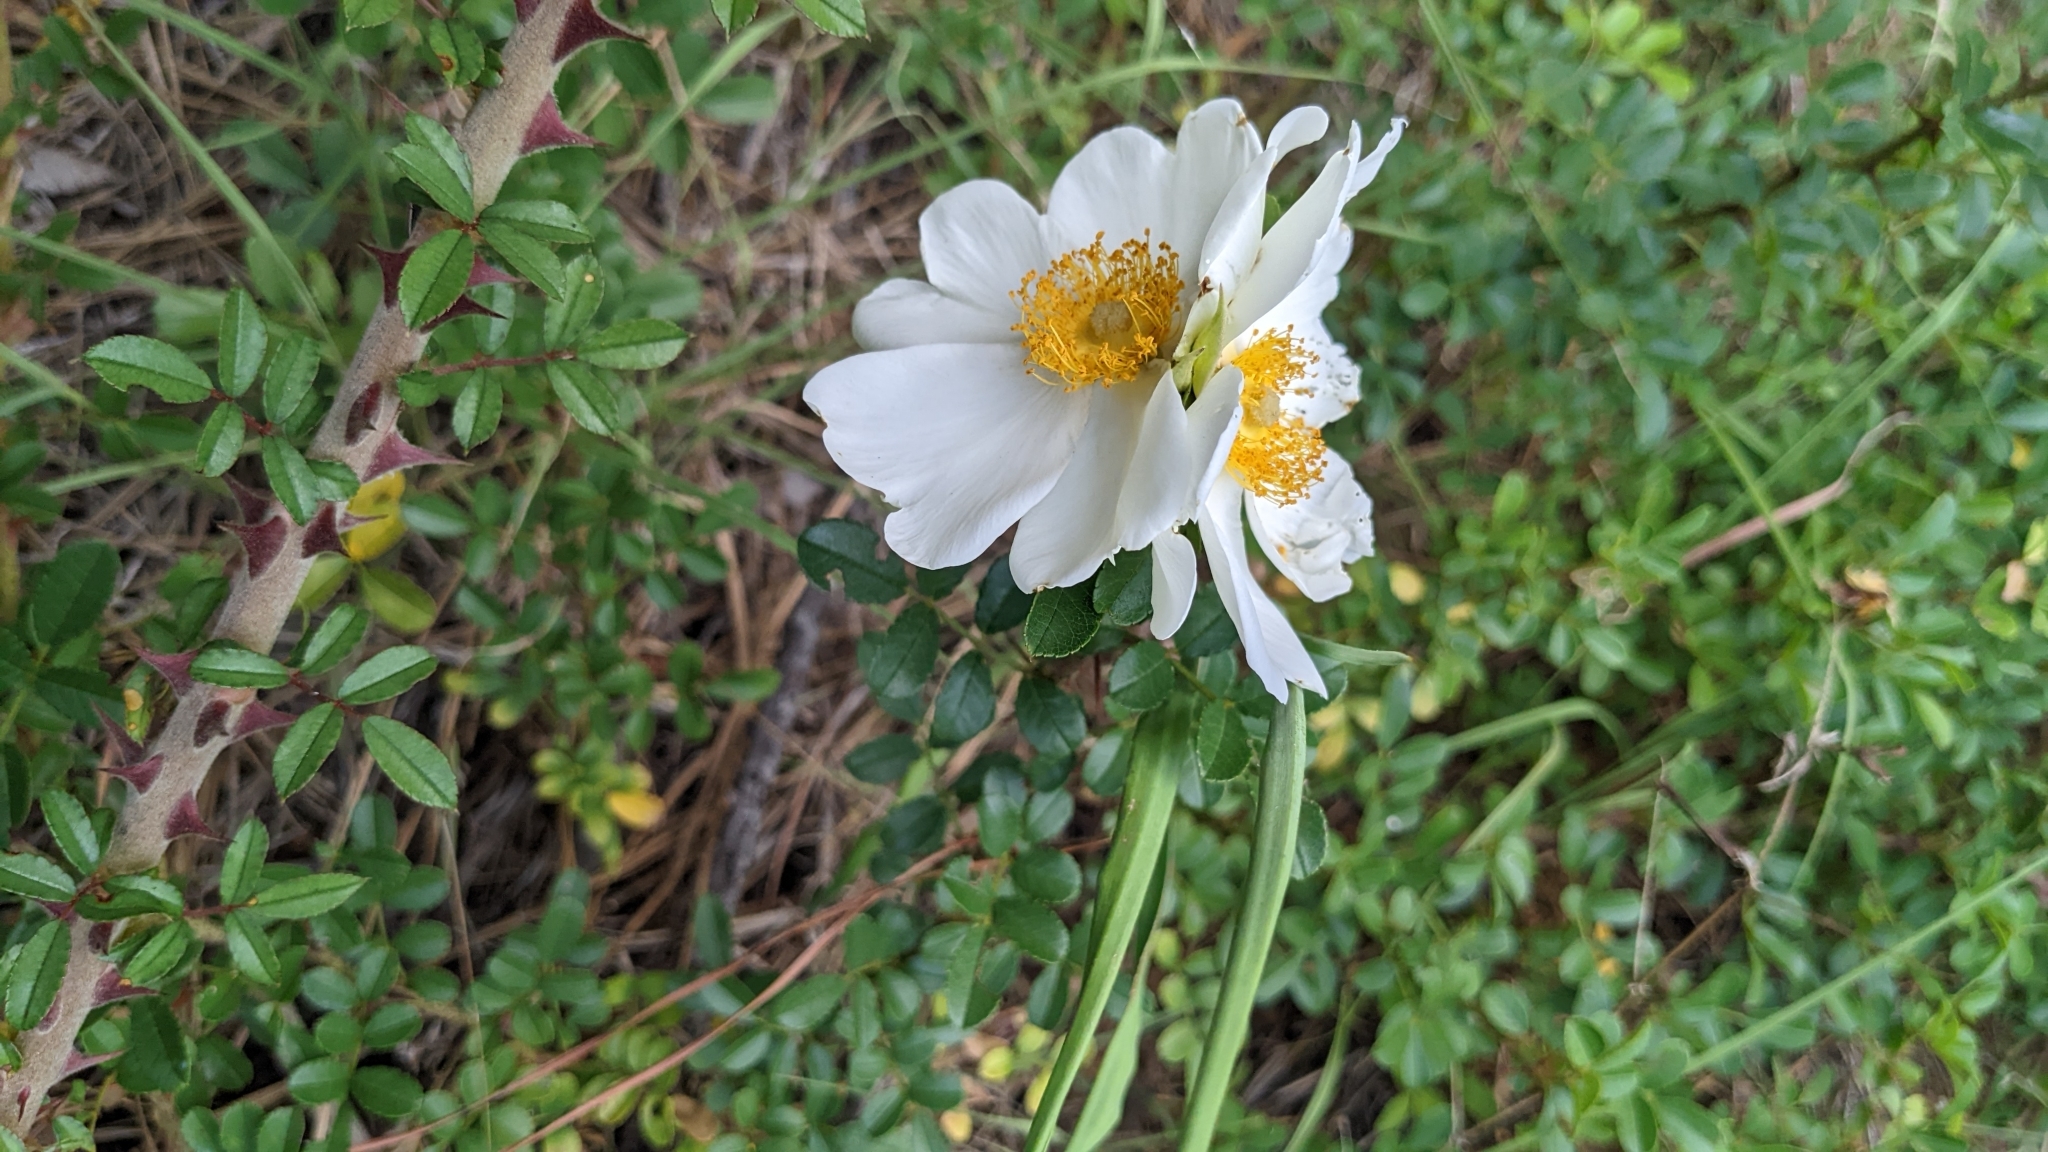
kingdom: Plantae
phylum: Tracheophyta
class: Magnoliopsida
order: Rosales
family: Rosaceae
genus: Rosa
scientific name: Rosa bracteata
